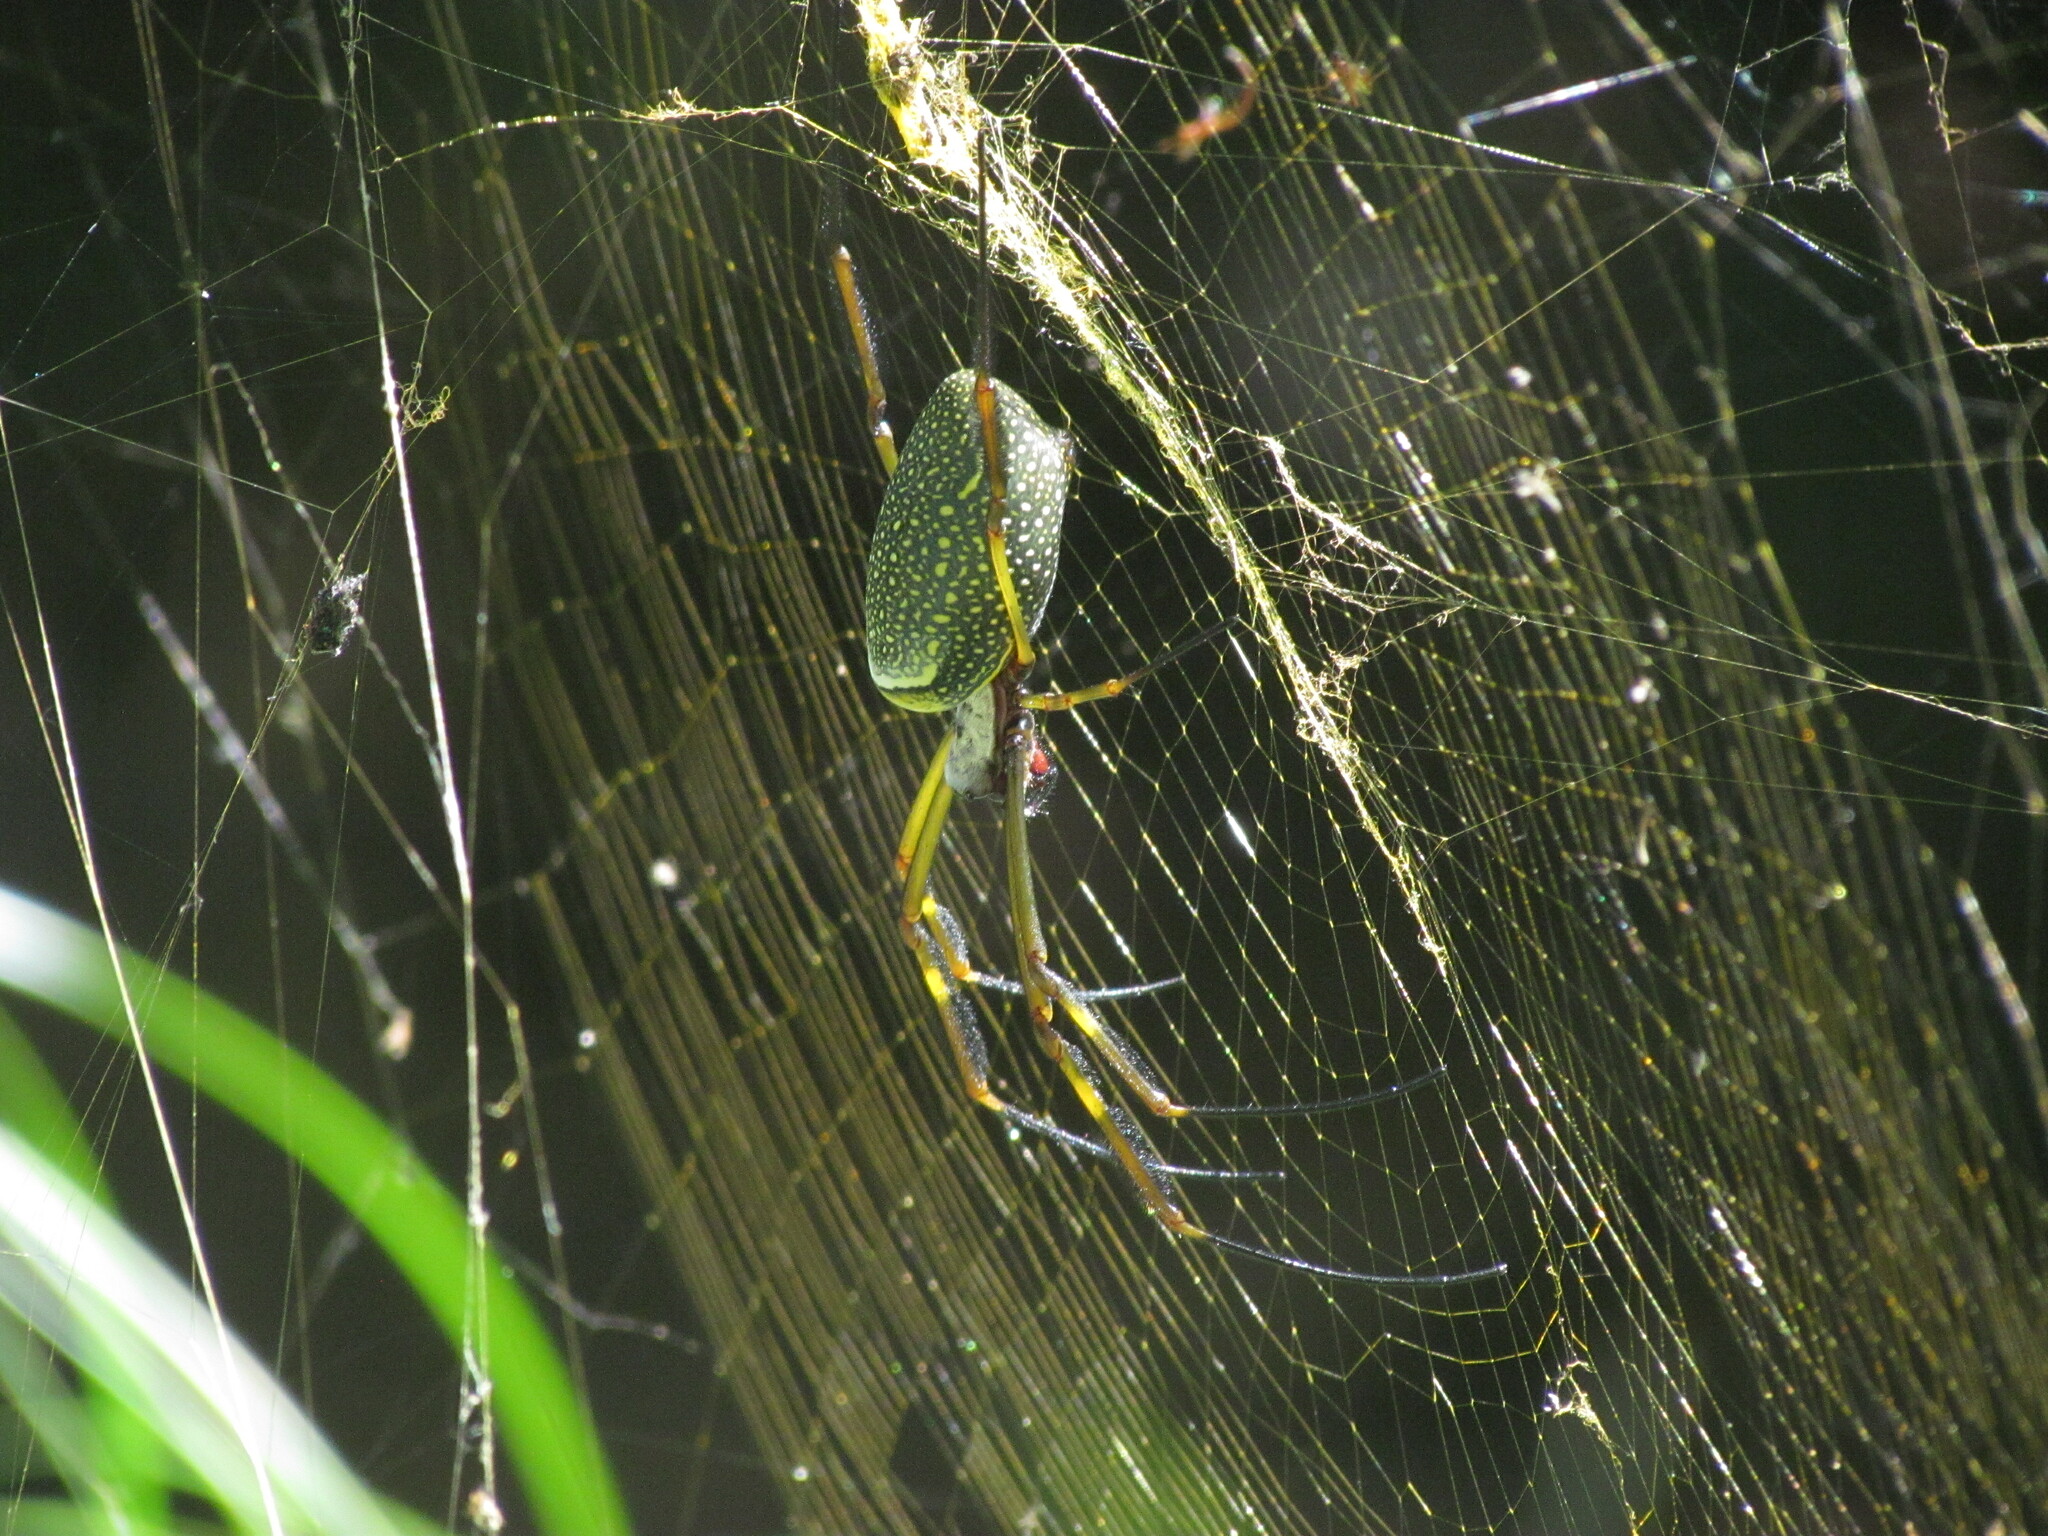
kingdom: Animalia
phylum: Arthropoda
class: Arachnida
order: Araneae
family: Araneidae
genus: Trichonephila
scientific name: Trichonephila clavipes
